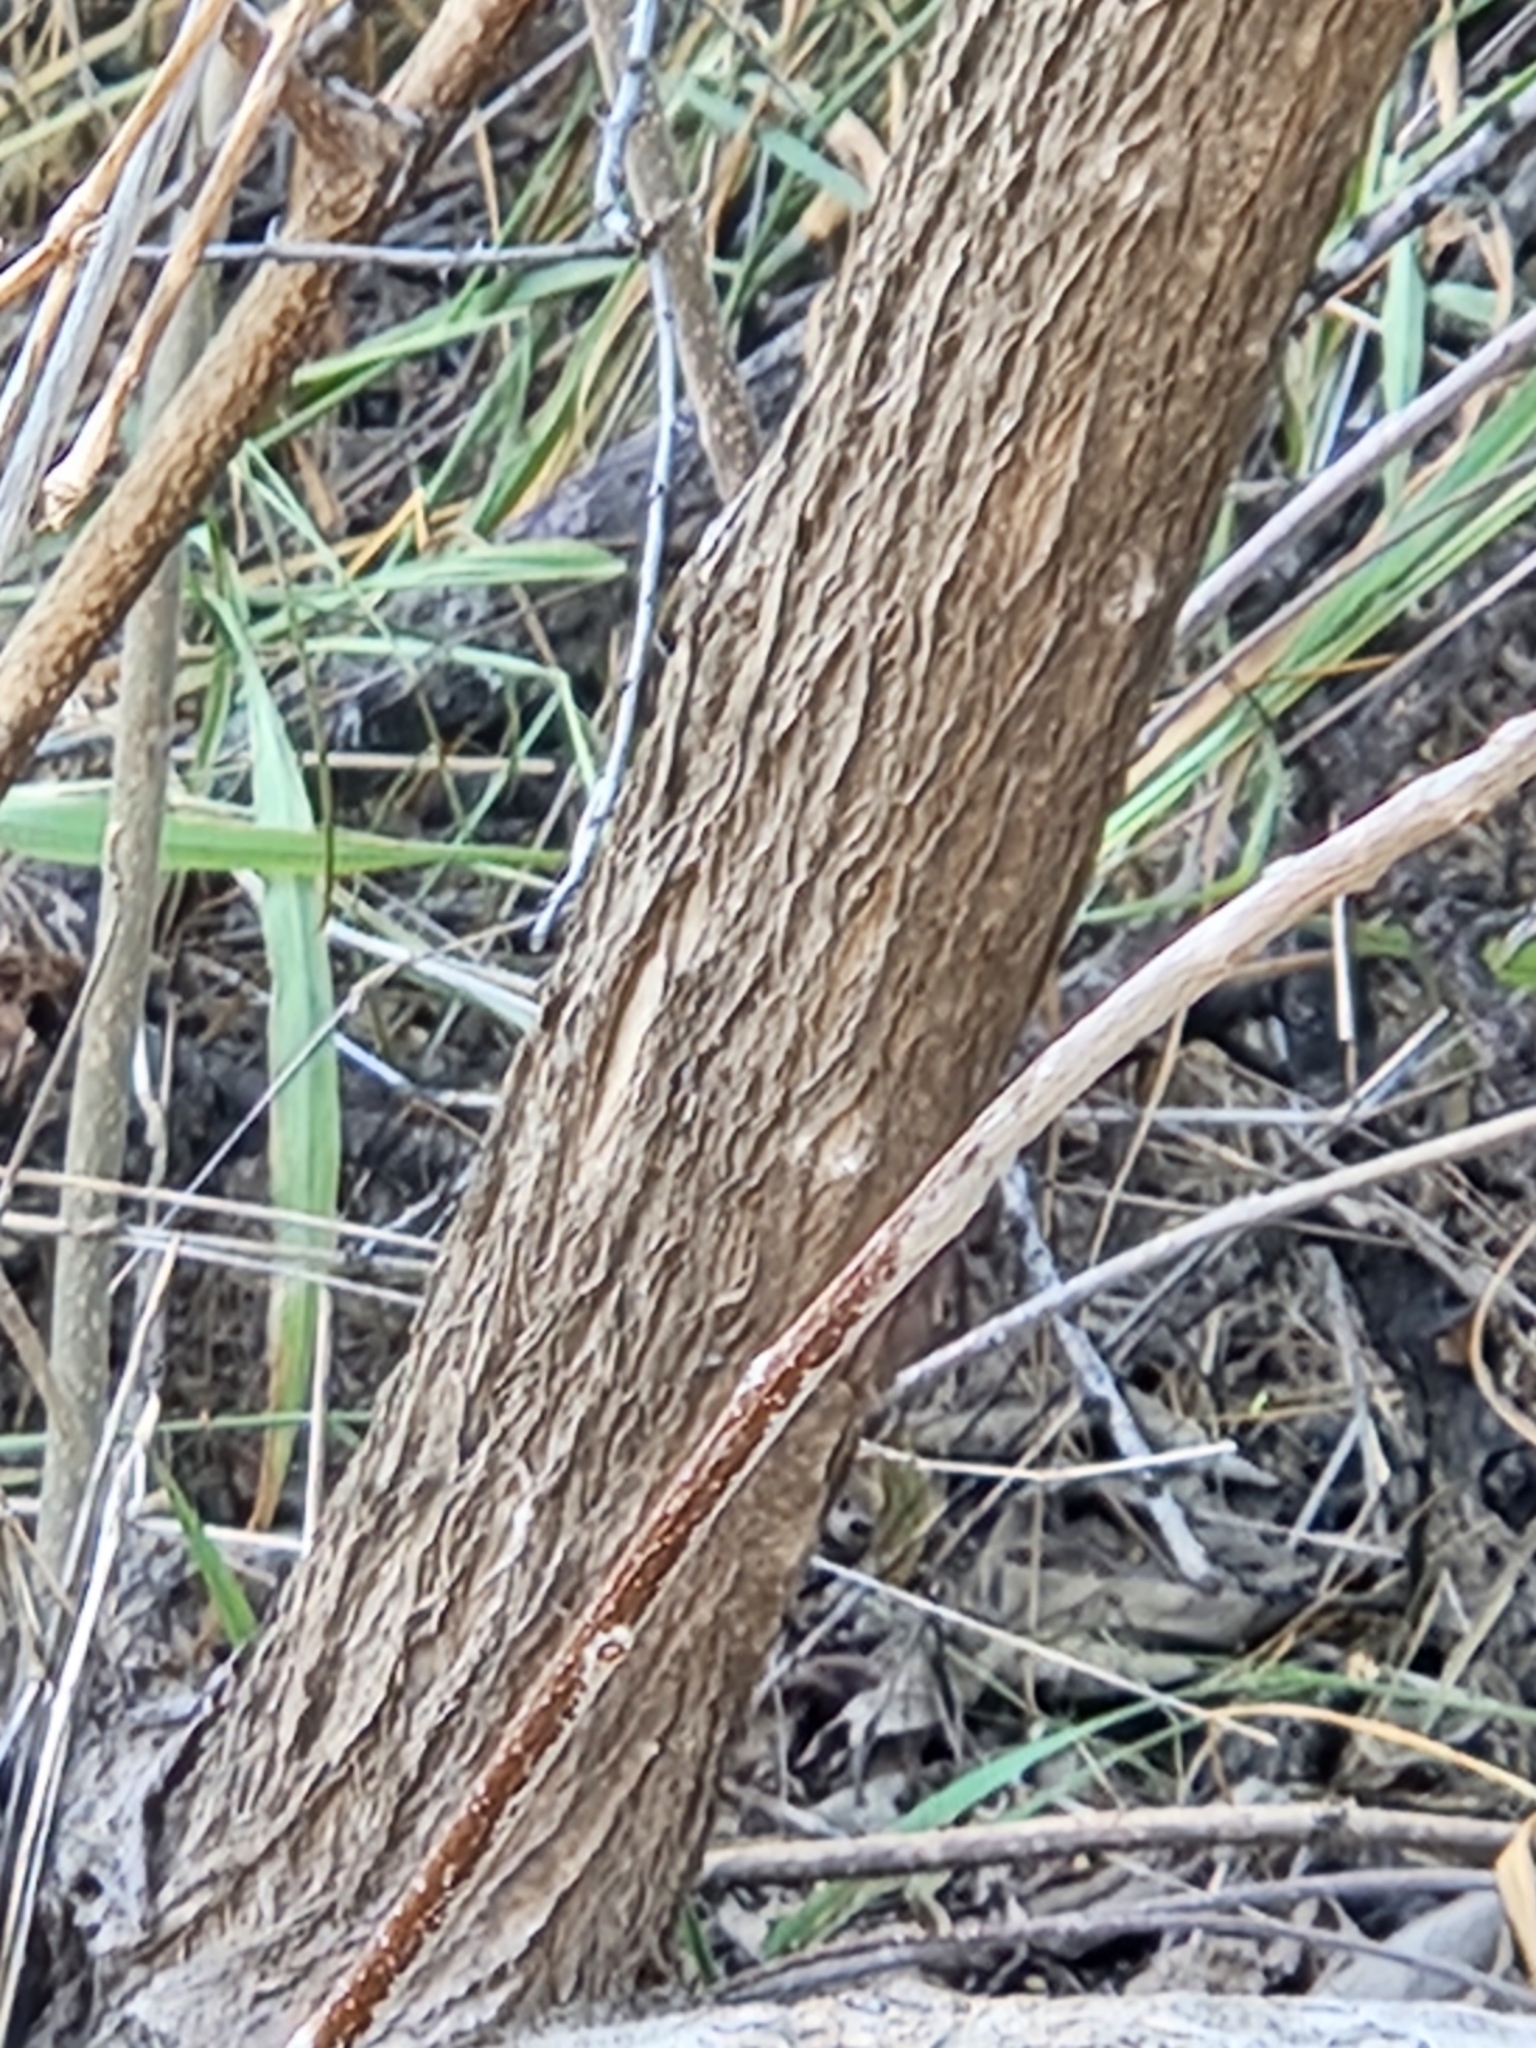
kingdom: Plantae
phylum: Tracheophyta
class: Magnoliopsida
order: Boraginales
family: Cordiaceae
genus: Cordia
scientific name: Cordia boissieri
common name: Mexican-olive
